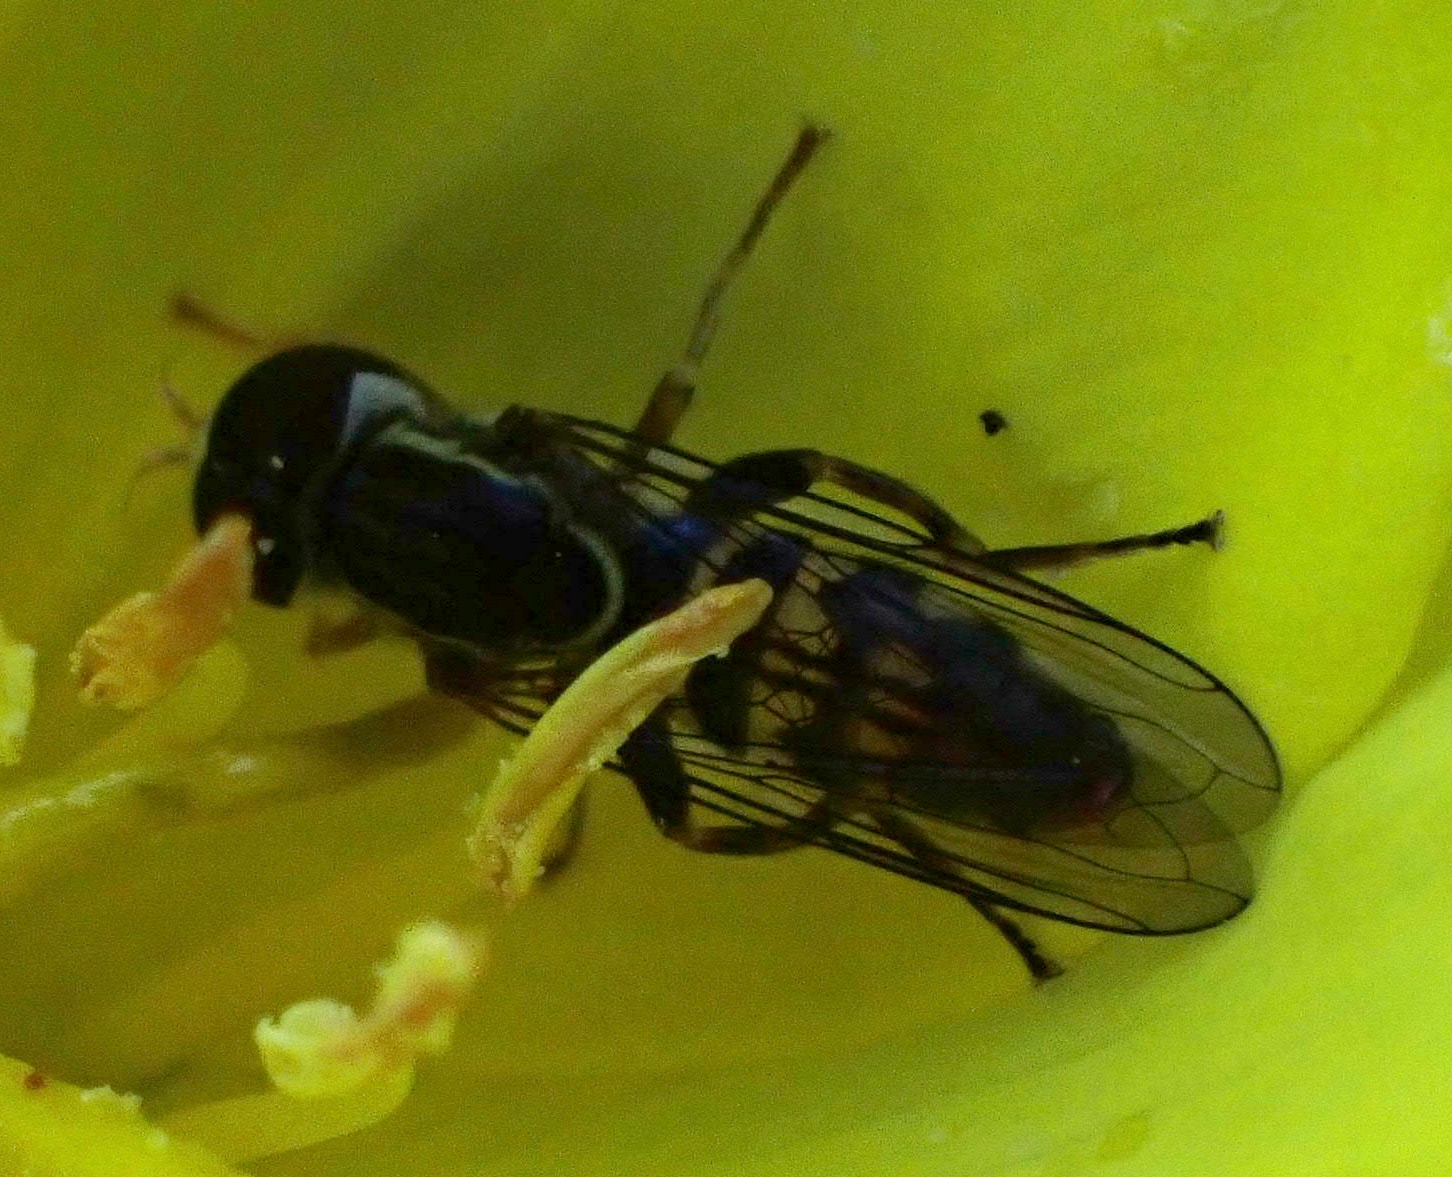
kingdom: Animalia
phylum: Arthropoda
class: Insecta
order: Diptera
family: Syrphidae
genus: Toxomerus
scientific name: Toxomerus geminatus
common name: Eastern calligrapher
